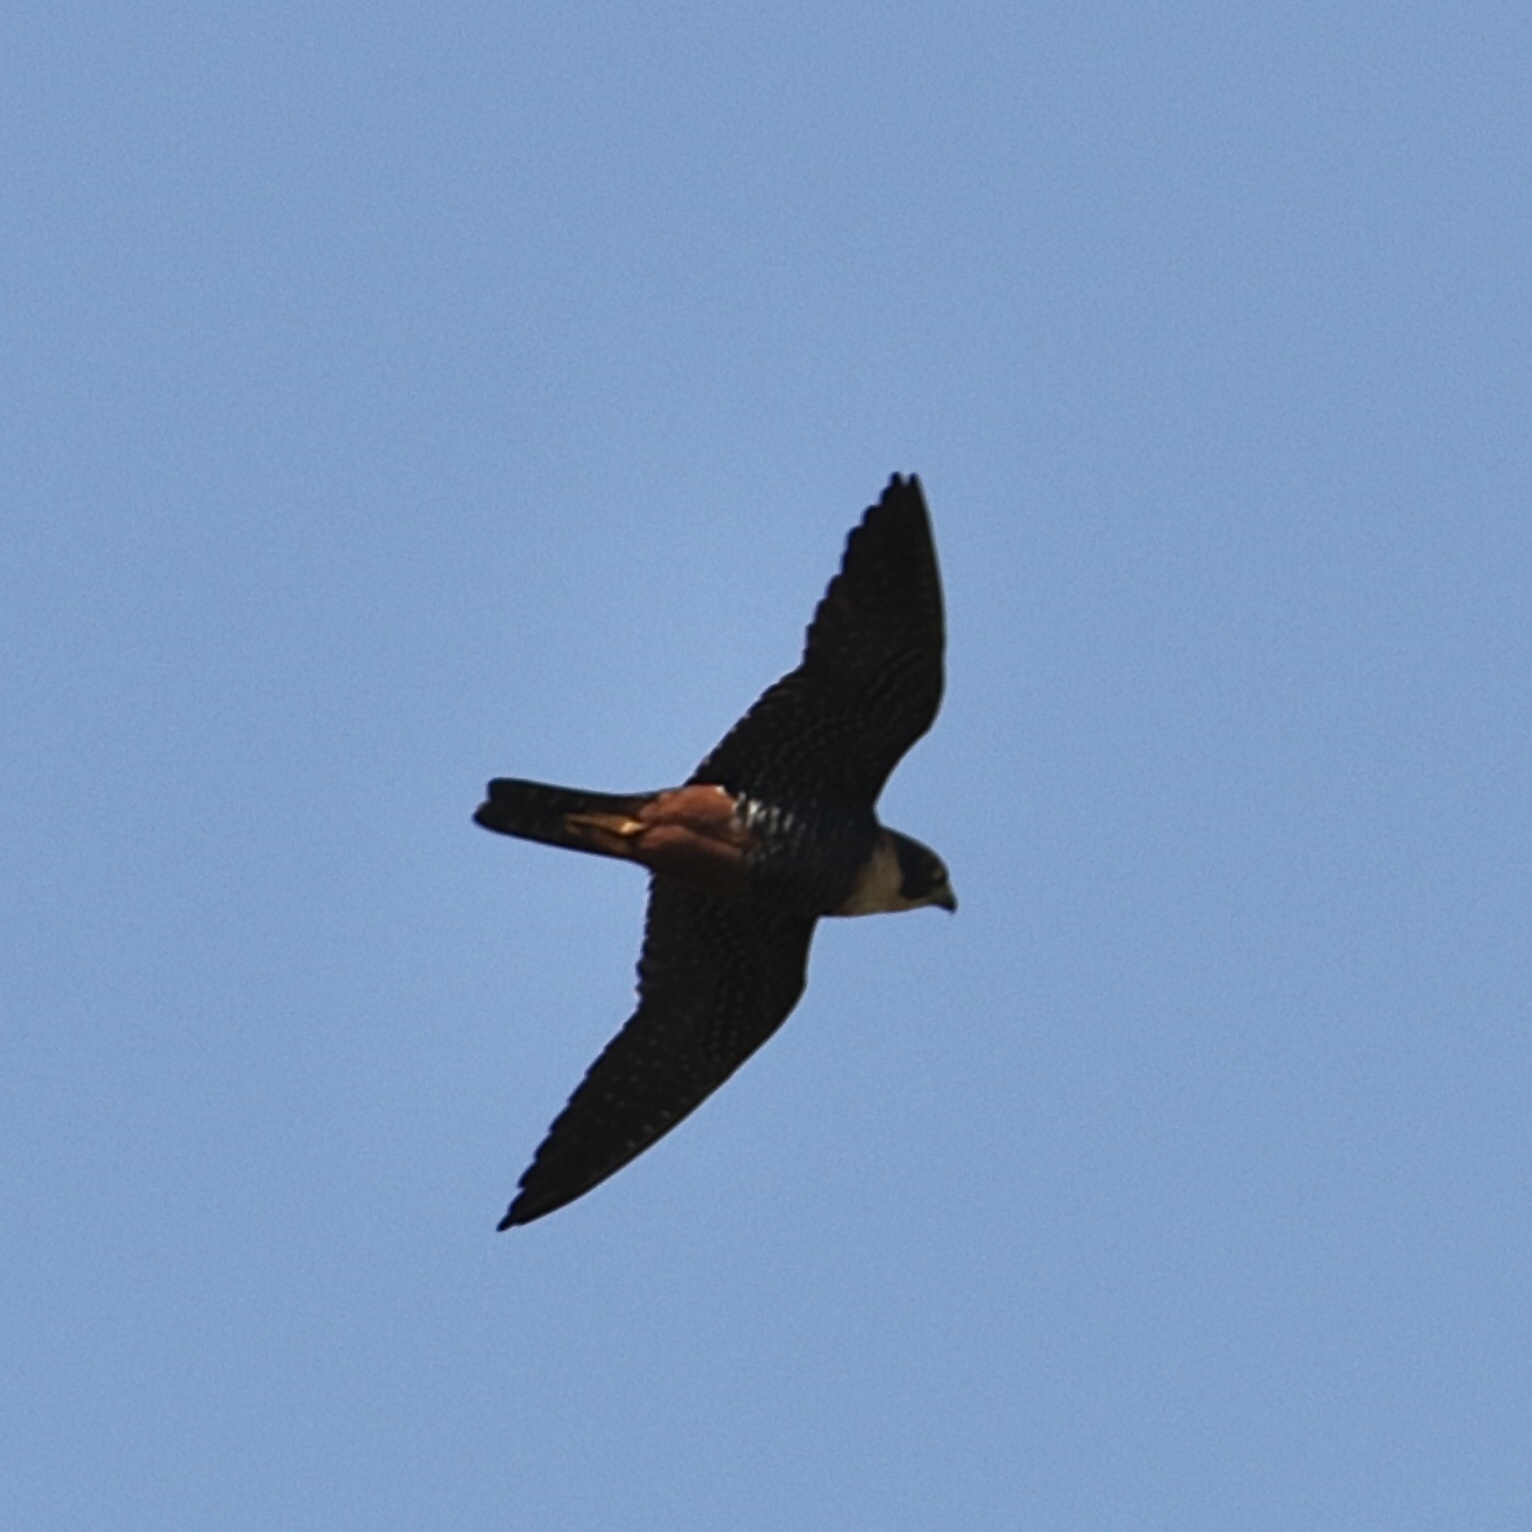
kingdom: Animalia
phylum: Chordata
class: Aves
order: Falconiformes
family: Falconidae
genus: Falco
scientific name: Falco rufigularis
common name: Bat falcon
